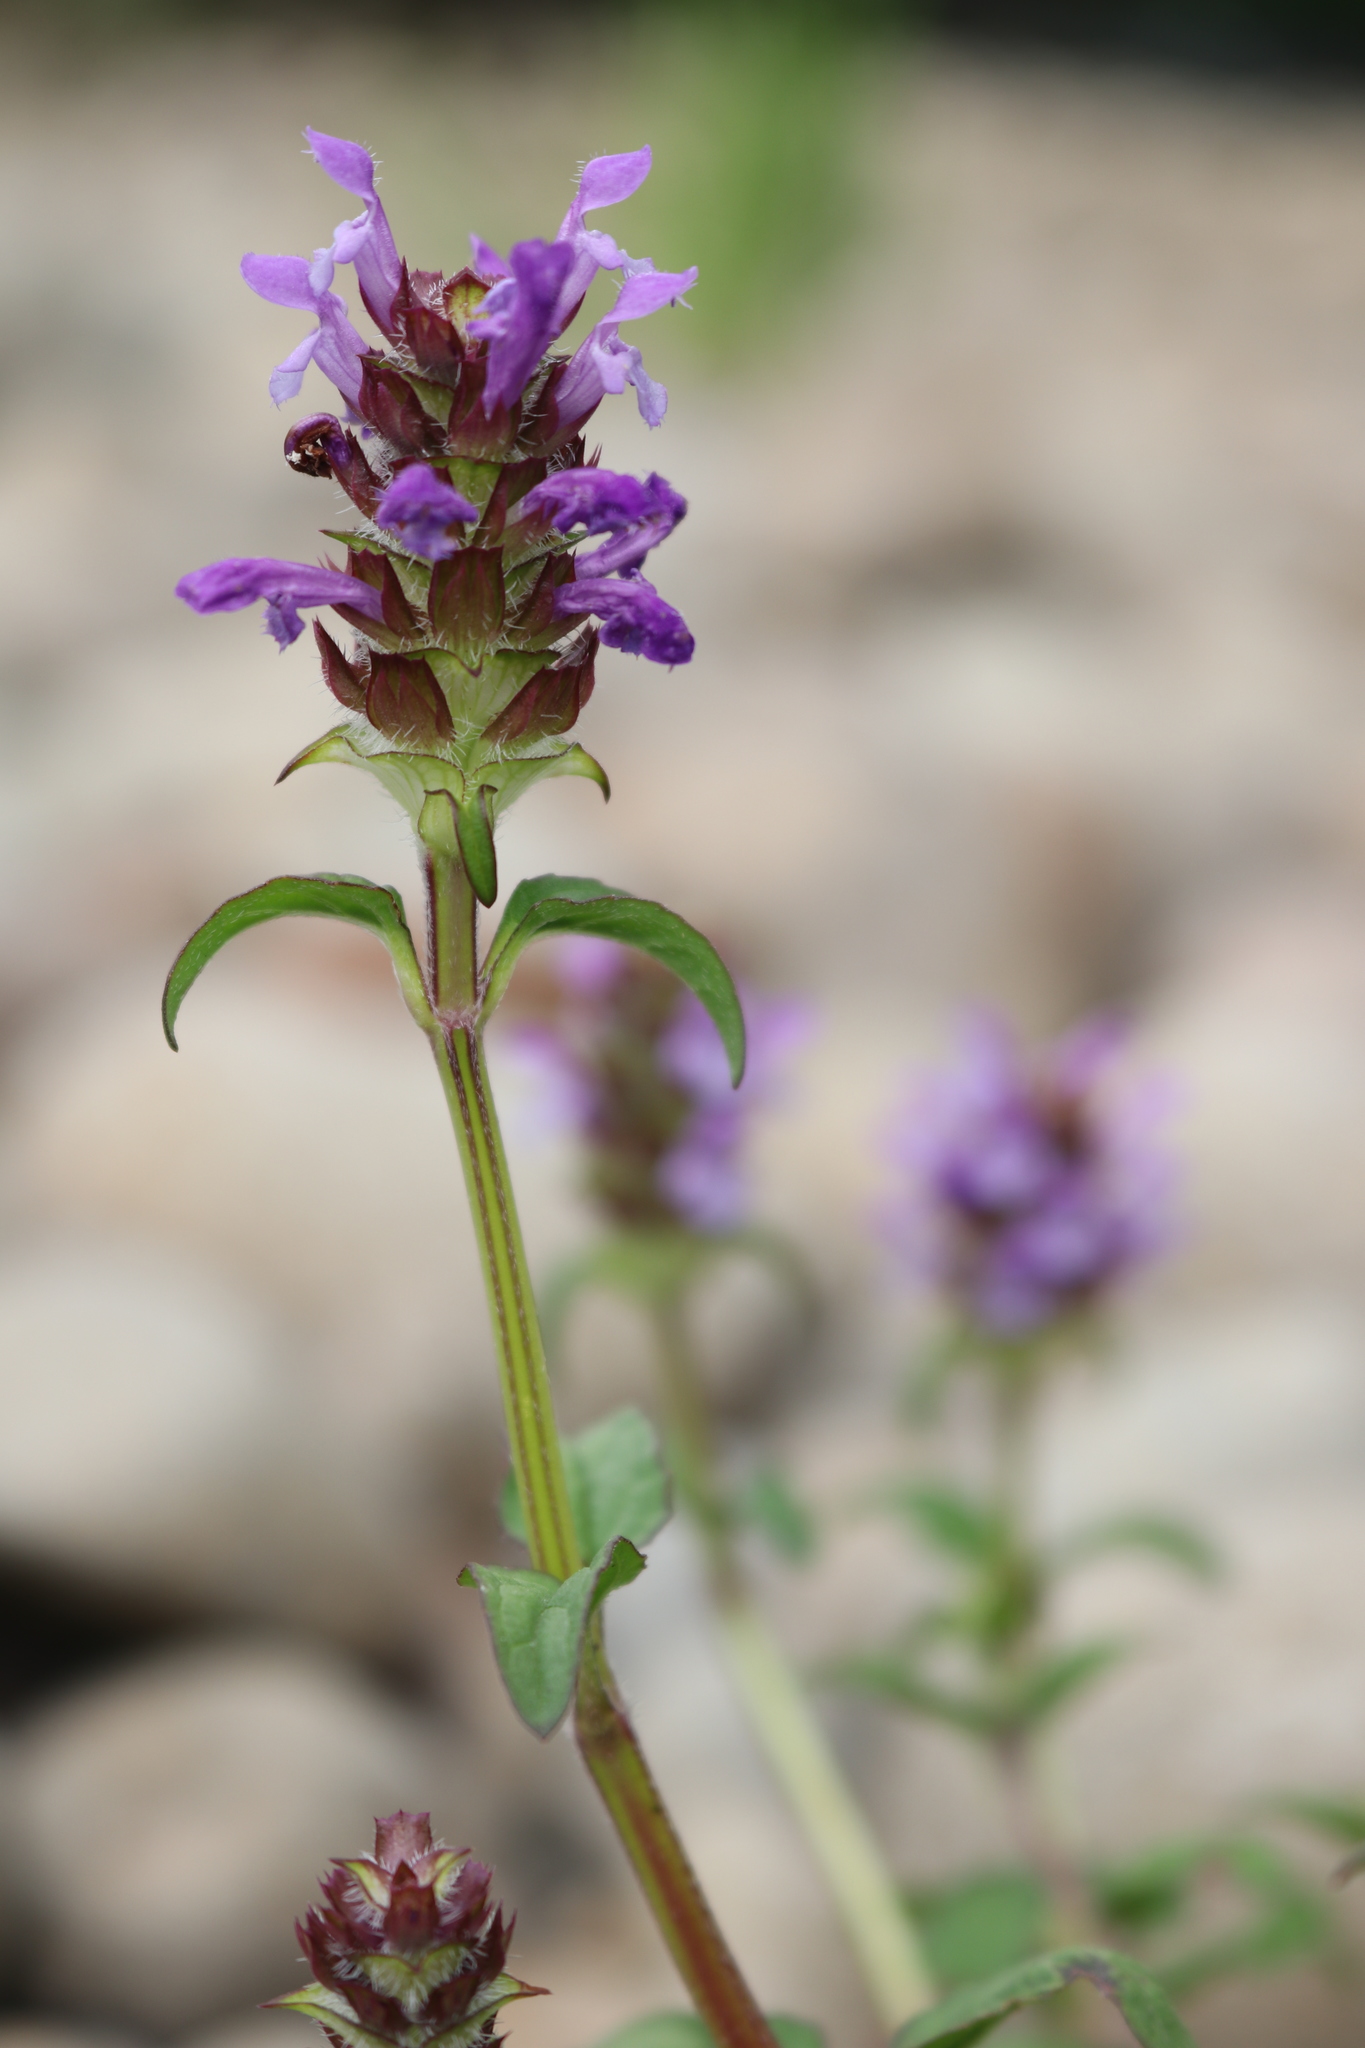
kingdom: Plantae
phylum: Tracheophyta
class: Magnoliopsida
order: Lamiales
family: Lamiaceae
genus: Prunella
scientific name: Prunella vulgaris
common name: Heal-all
